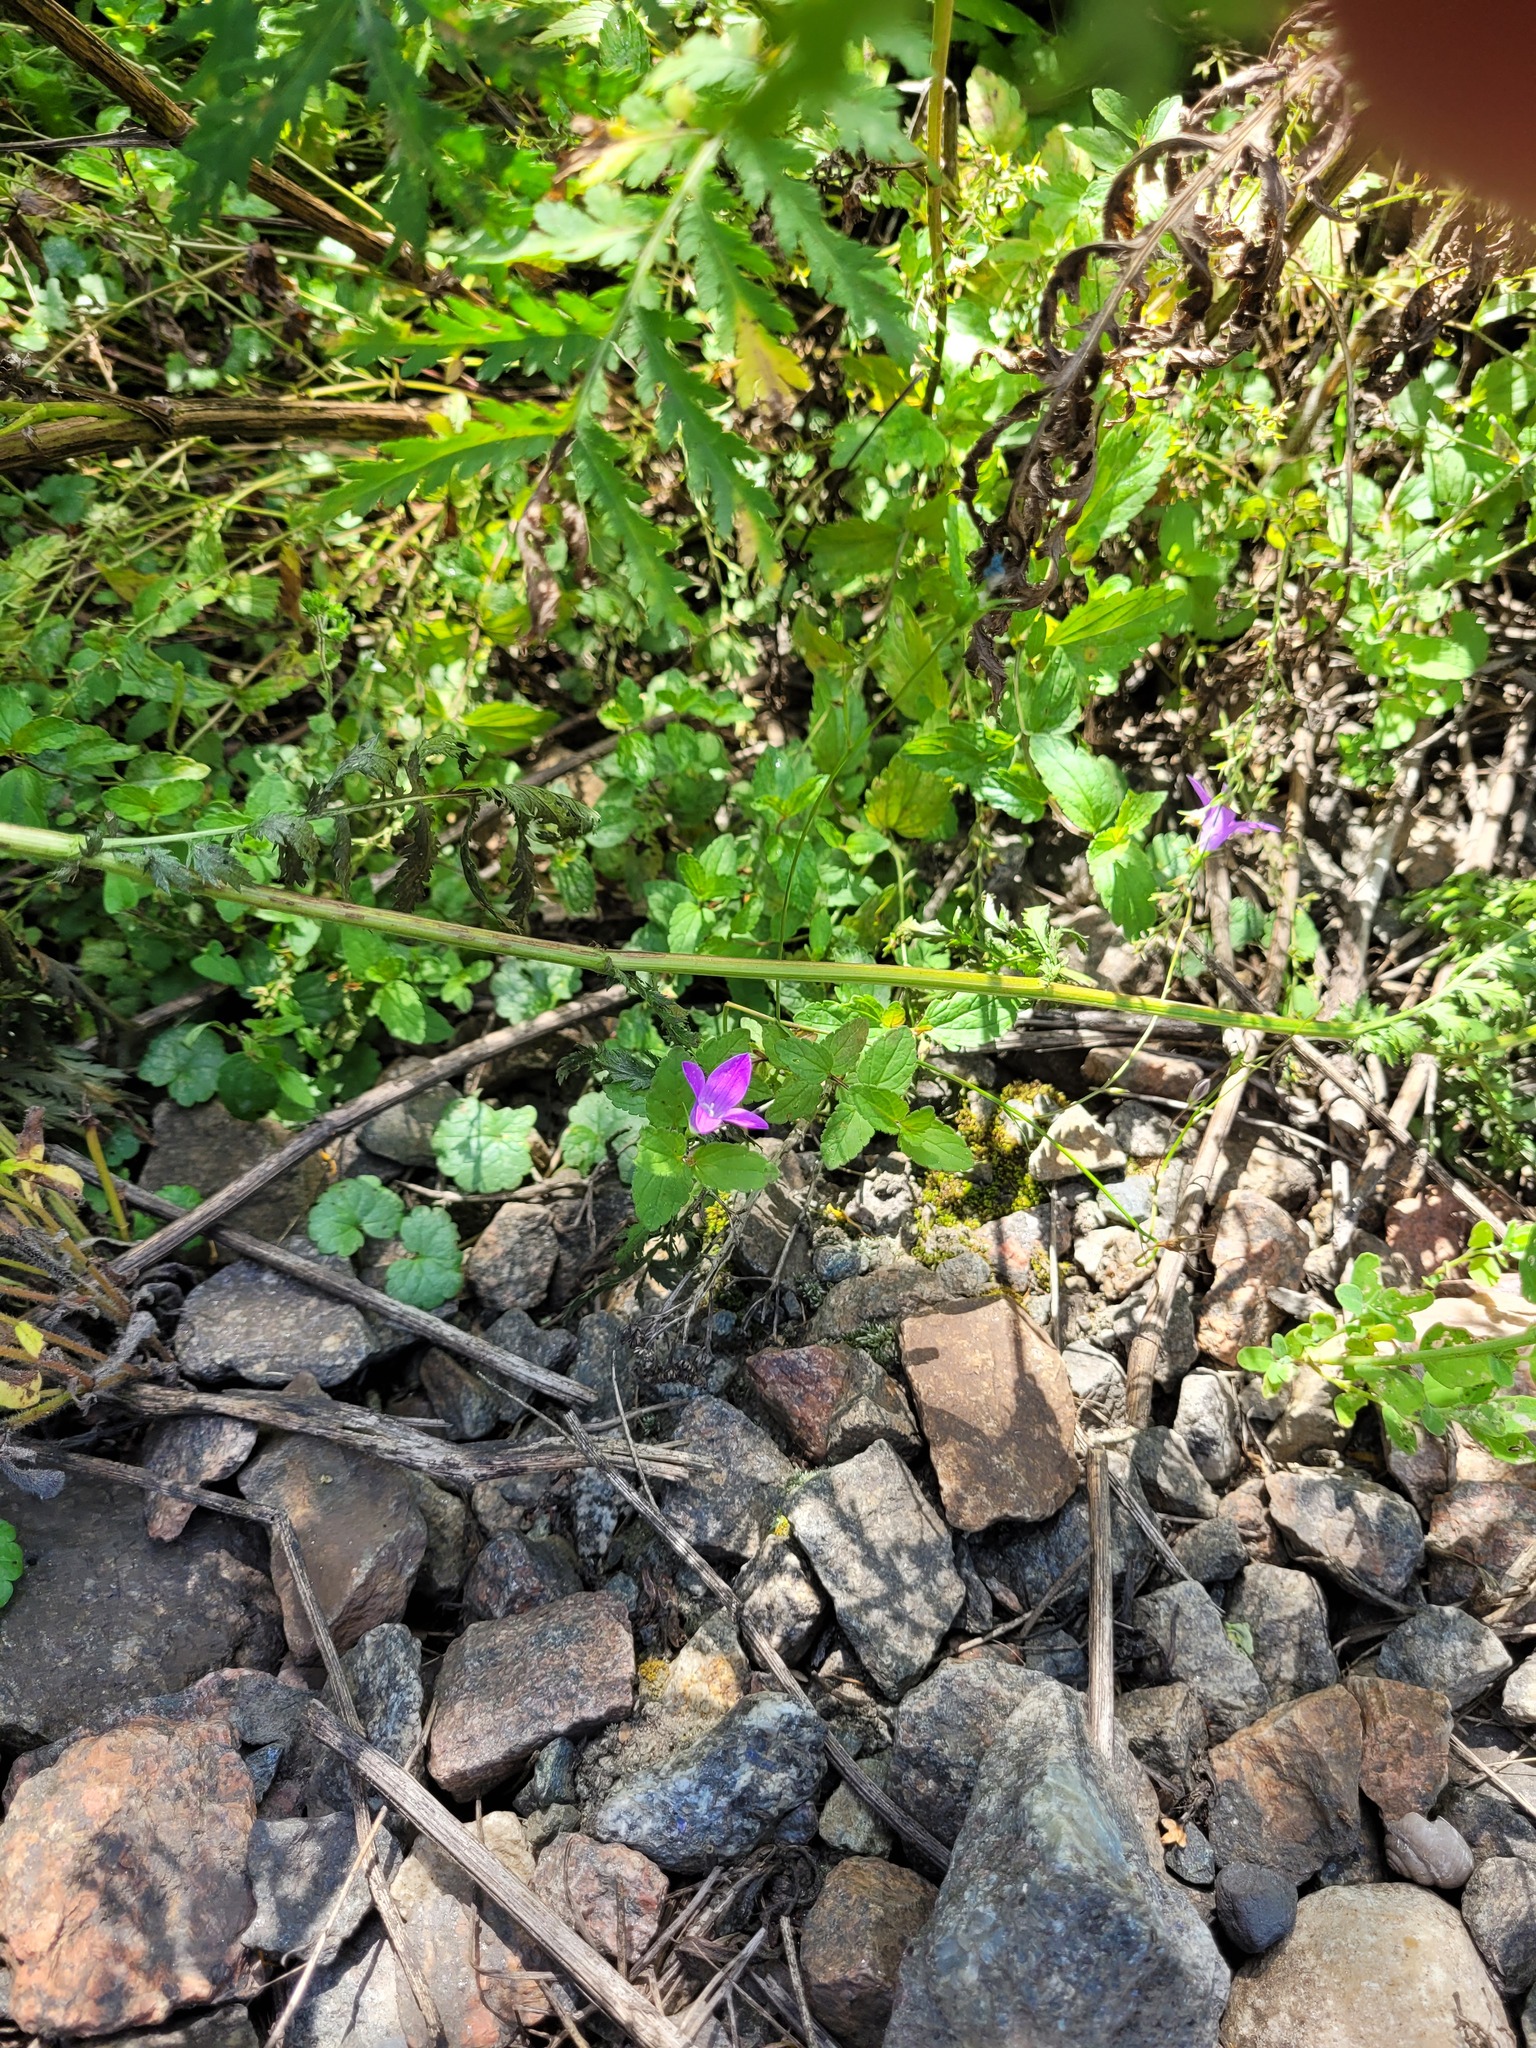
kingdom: Plantae
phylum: Tracheophyta
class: Magnoliopsida
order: Asterales
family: Campanulaceae
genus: Campanula
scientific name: Campanula patula
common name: Spreading bellflower
